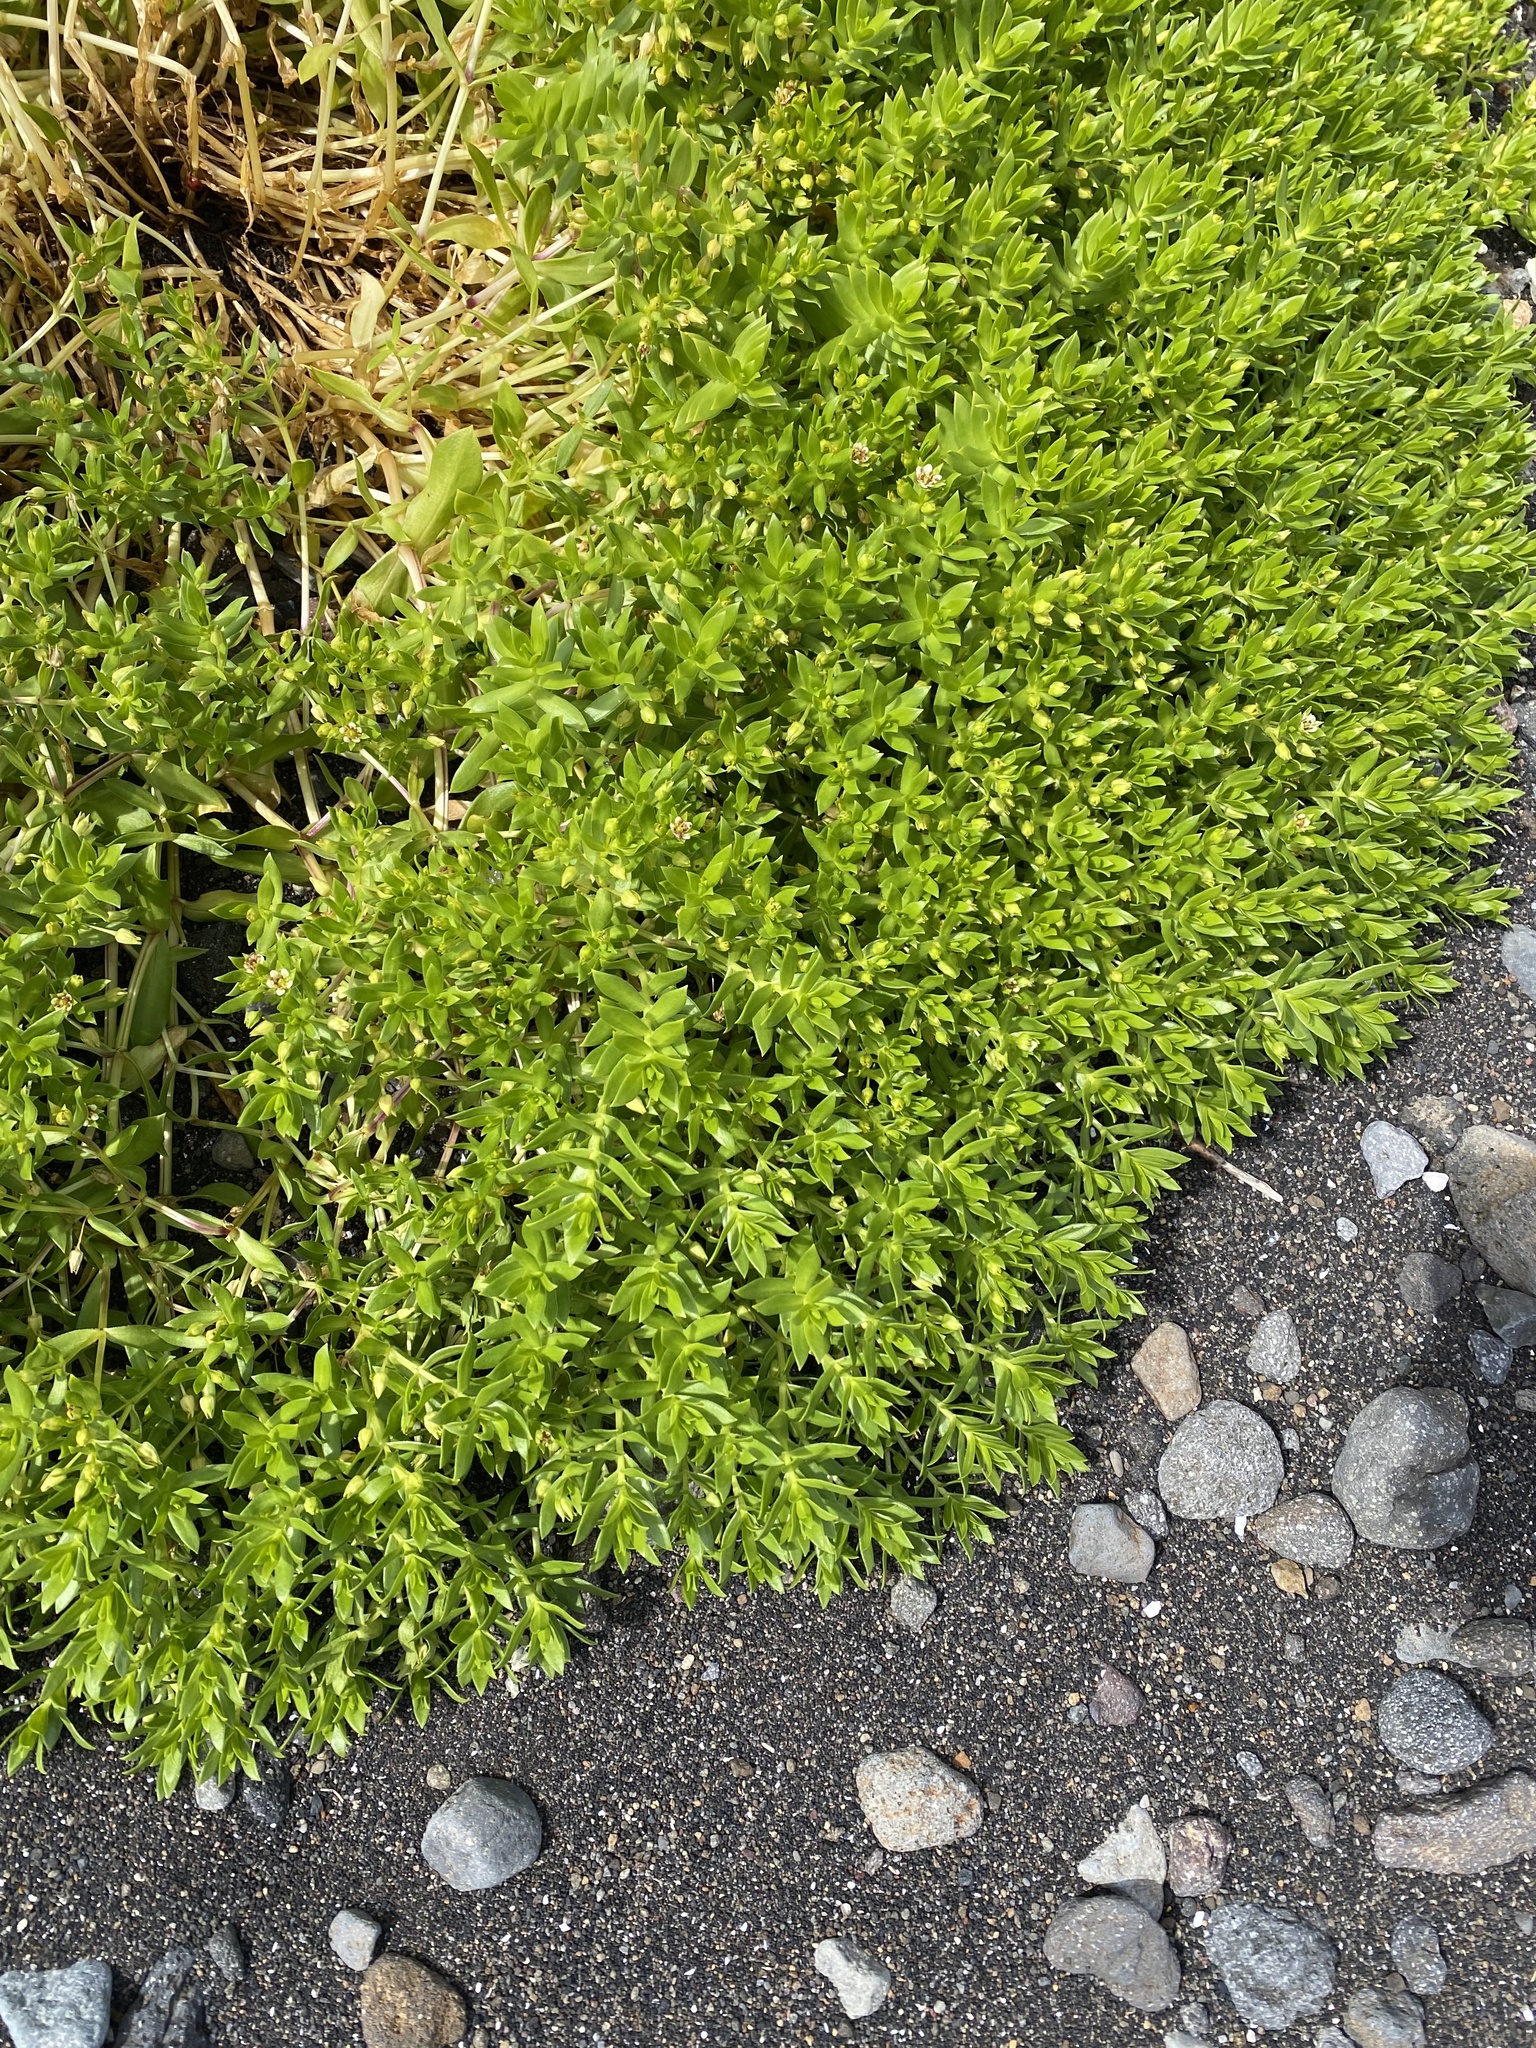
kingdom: Plantae
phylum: Tracheophyta
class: Magnoliopsida
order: Caryophyllales
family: Caryophyllaceae
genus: Honckenya
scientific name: Honckenya peploides
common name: Sea sandwort
